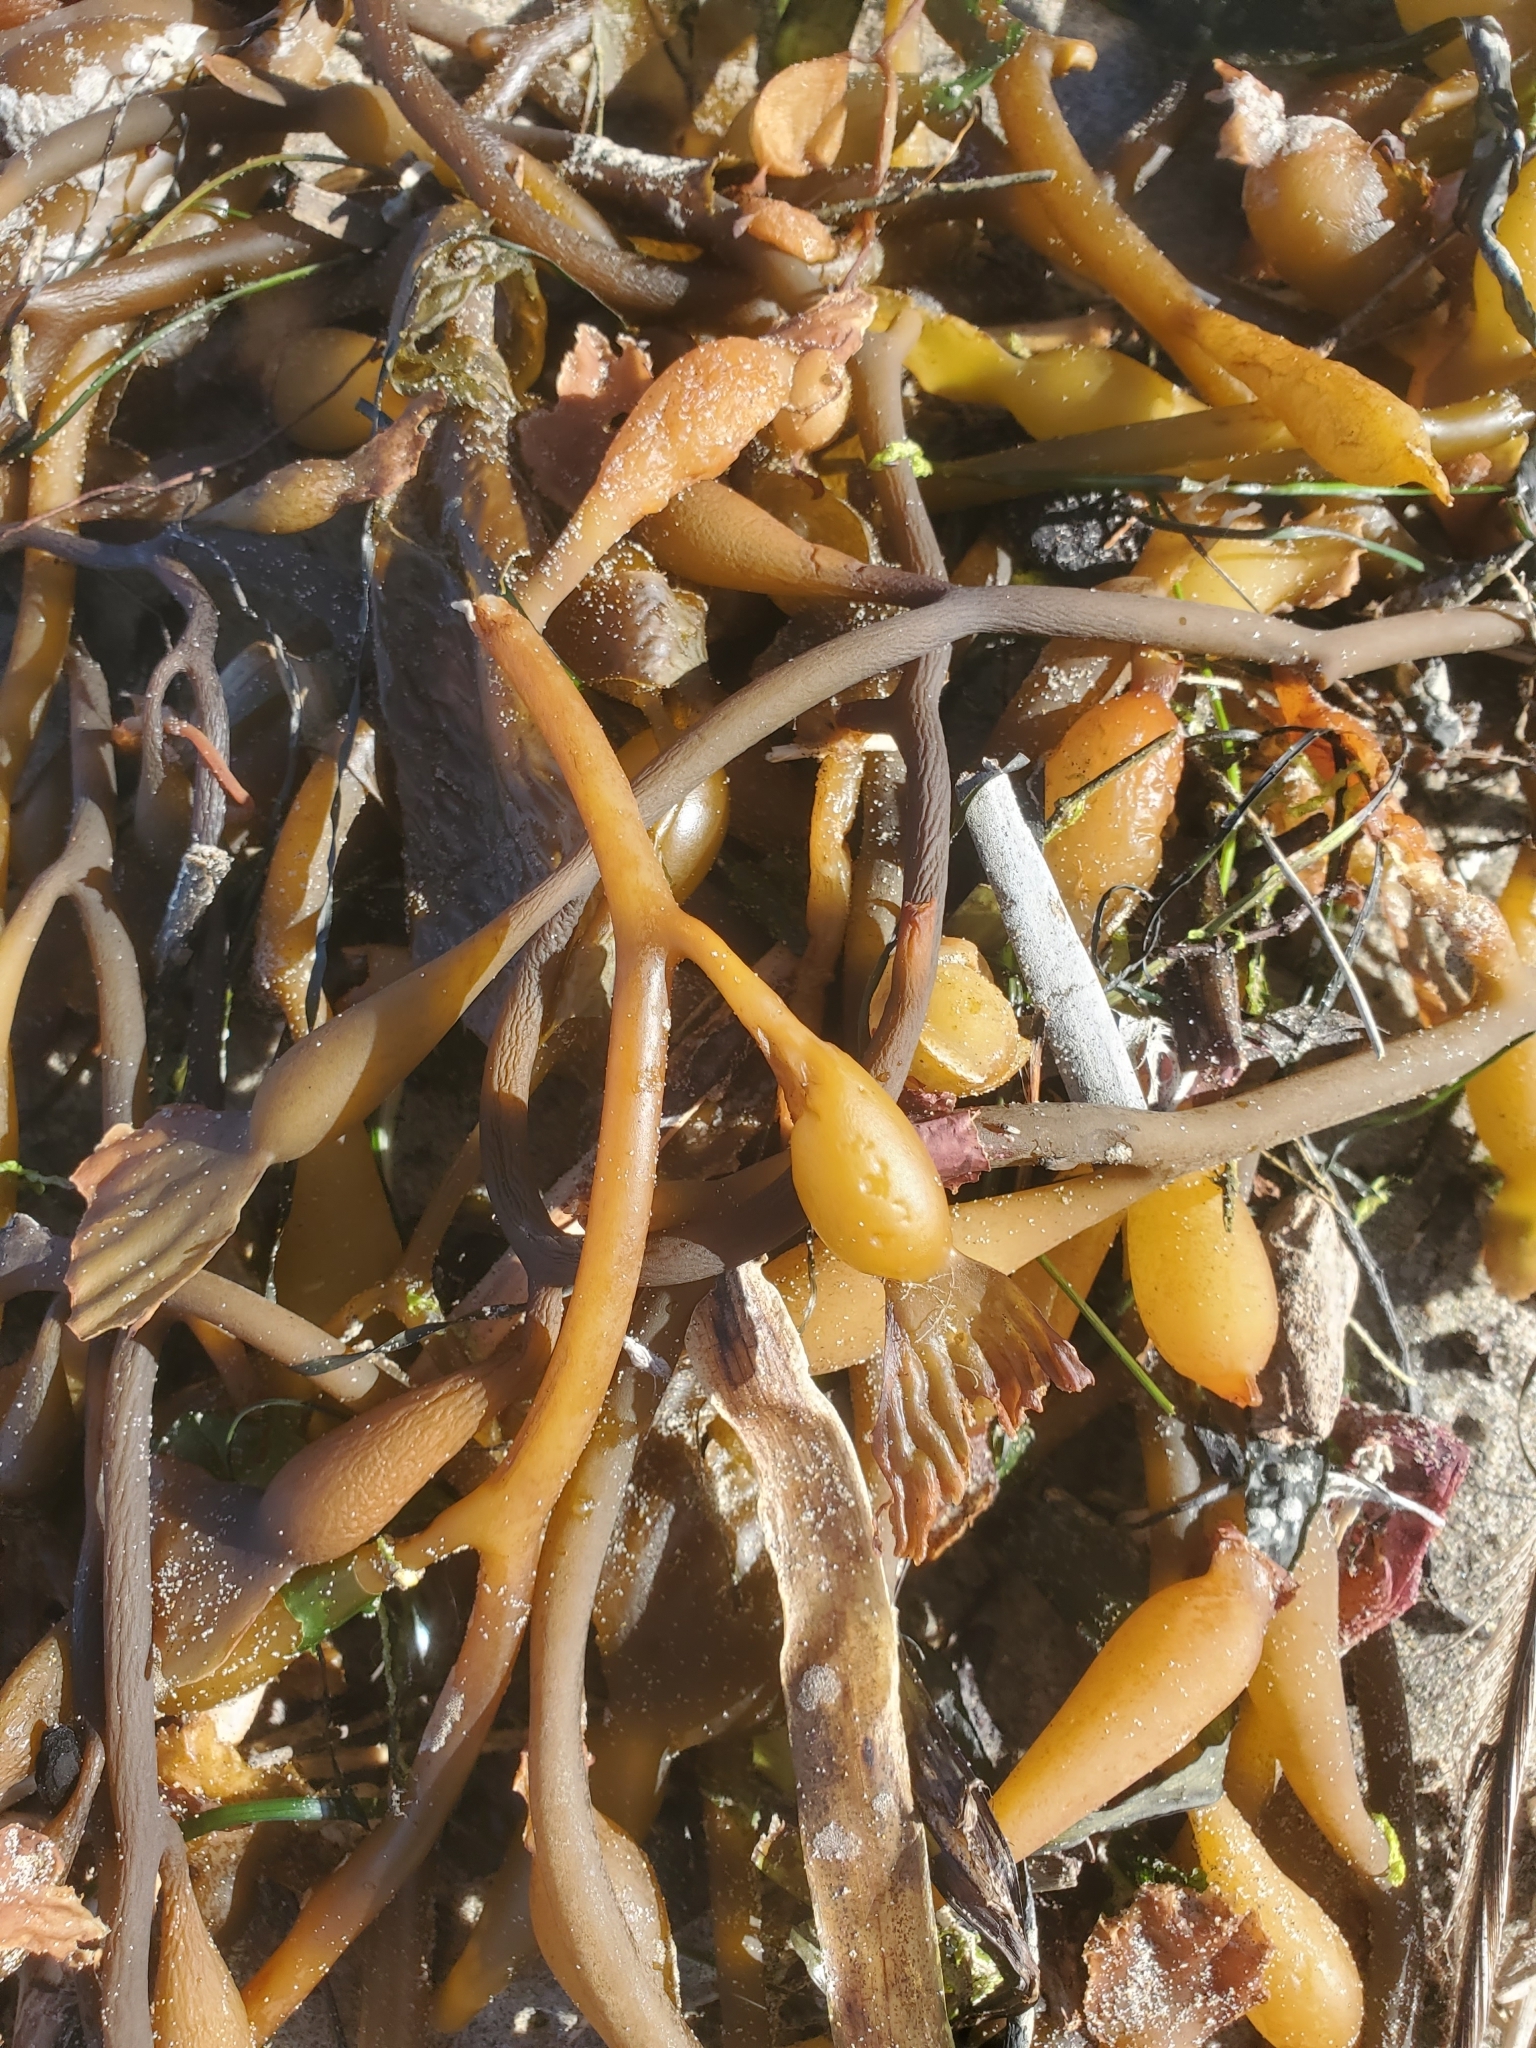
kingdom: Chromista
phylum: Ochrophyta
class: Phaeophyceae
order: Laminariales
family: Laminariaceae
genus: Macrocystis
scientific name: Macrocystis pyrifera
